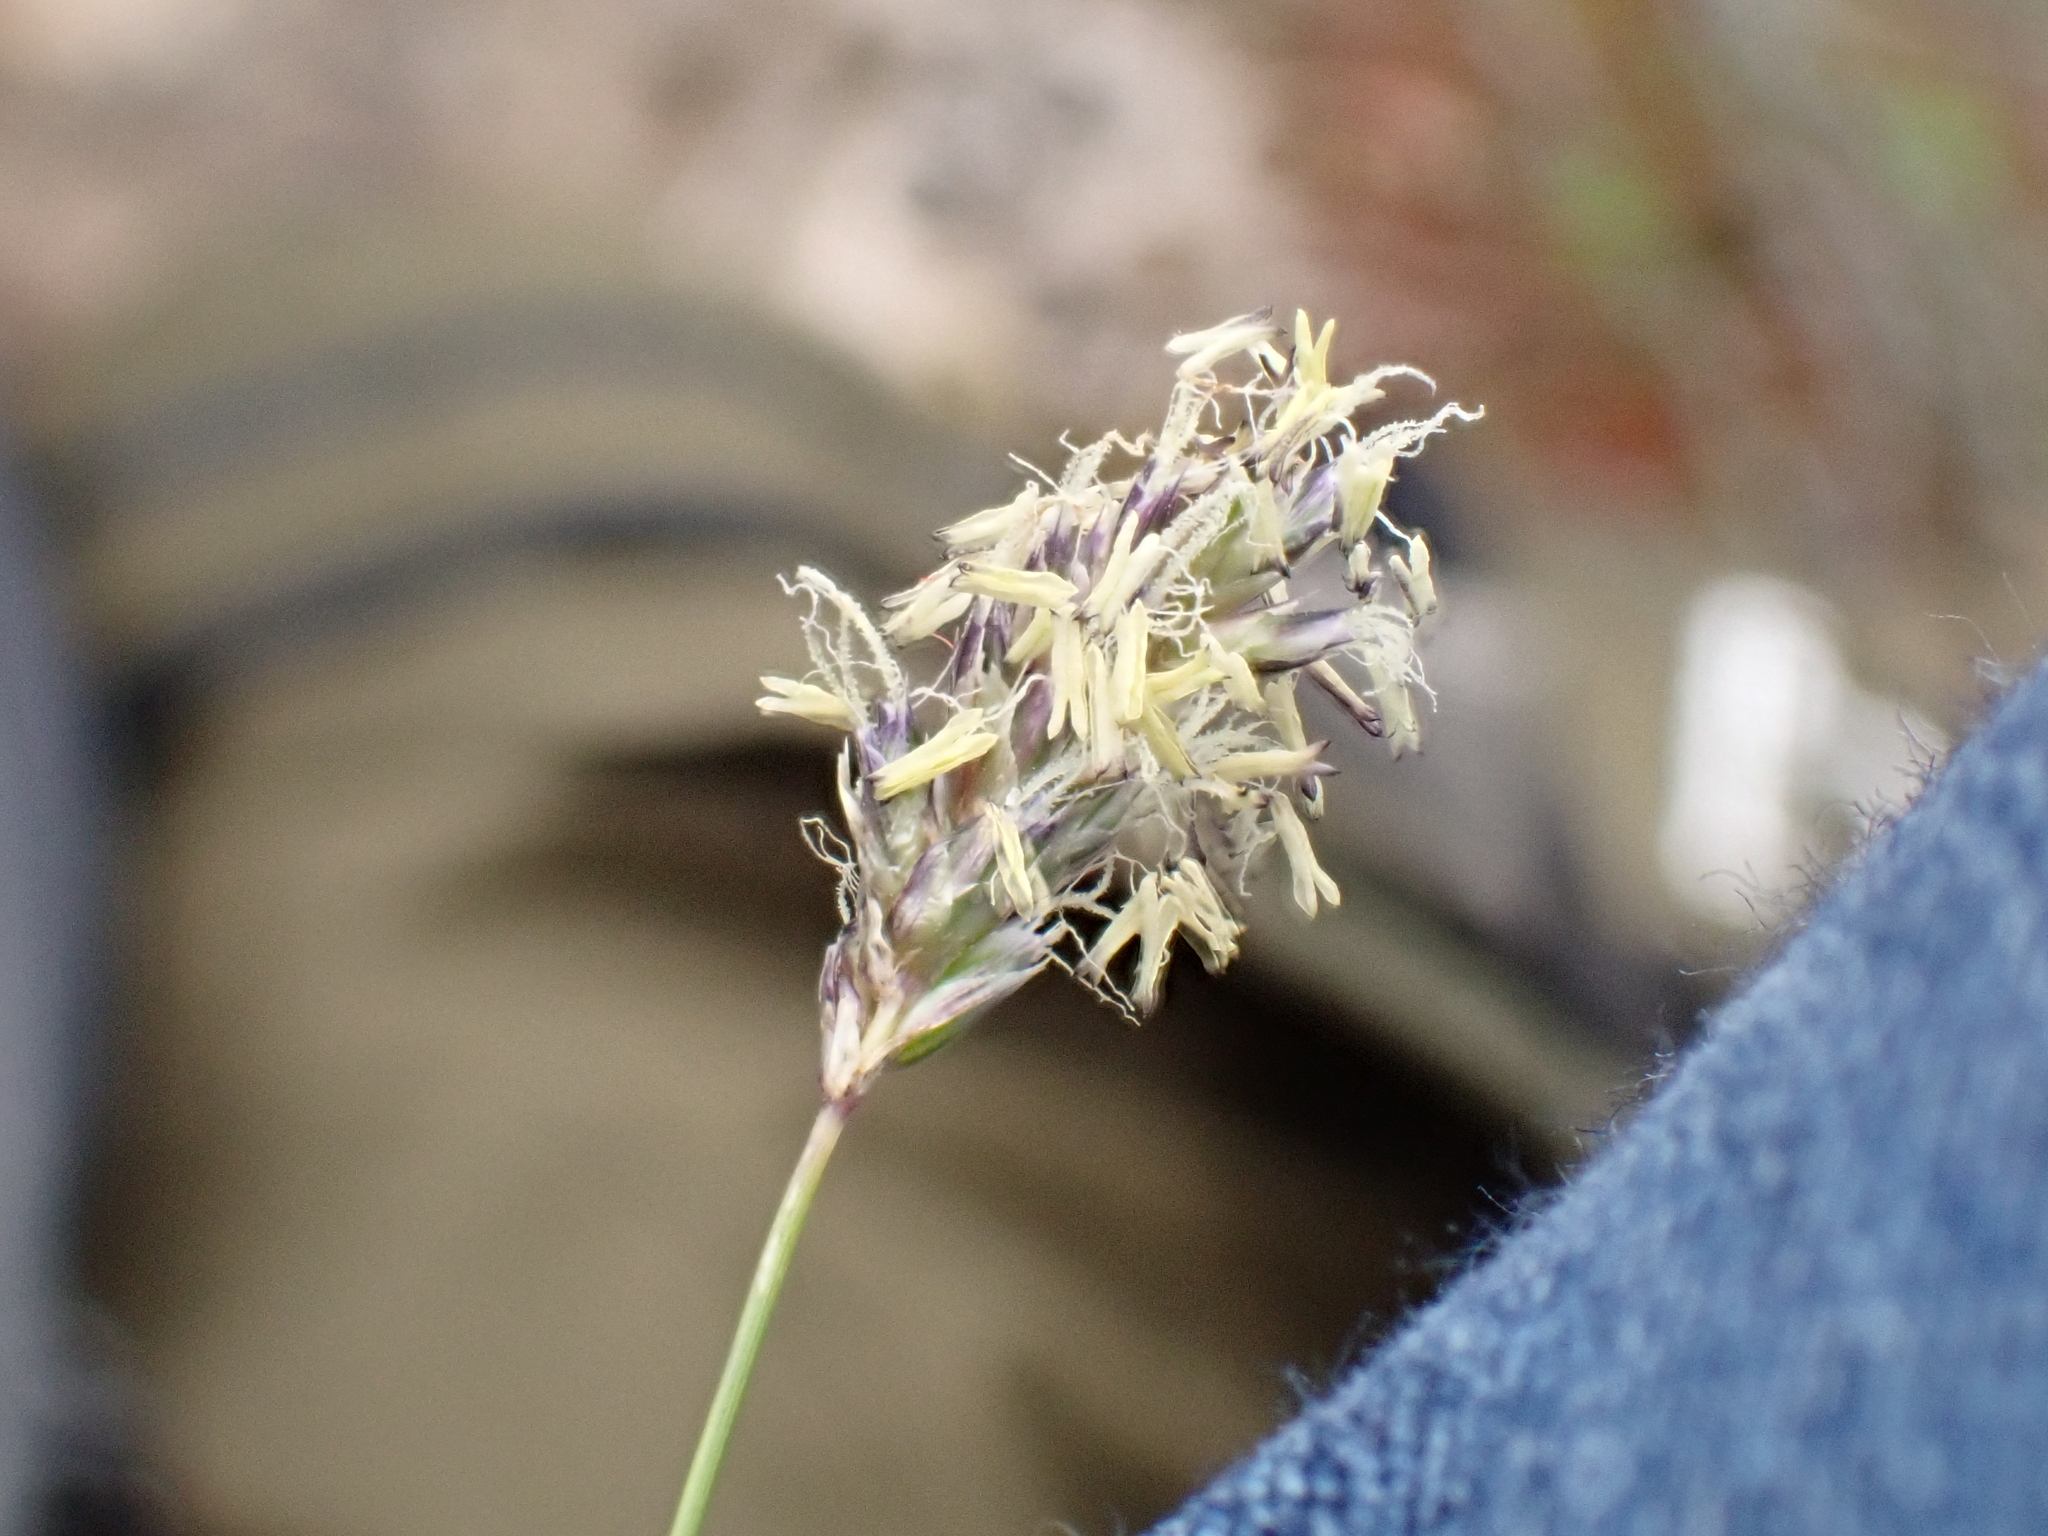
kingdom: Plantae
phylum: Tracheophyta
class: Liliopsida
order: Poales
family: Poaceae
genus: Sesleria
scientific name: Sesleria caerulea
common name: Blue moor-grass
